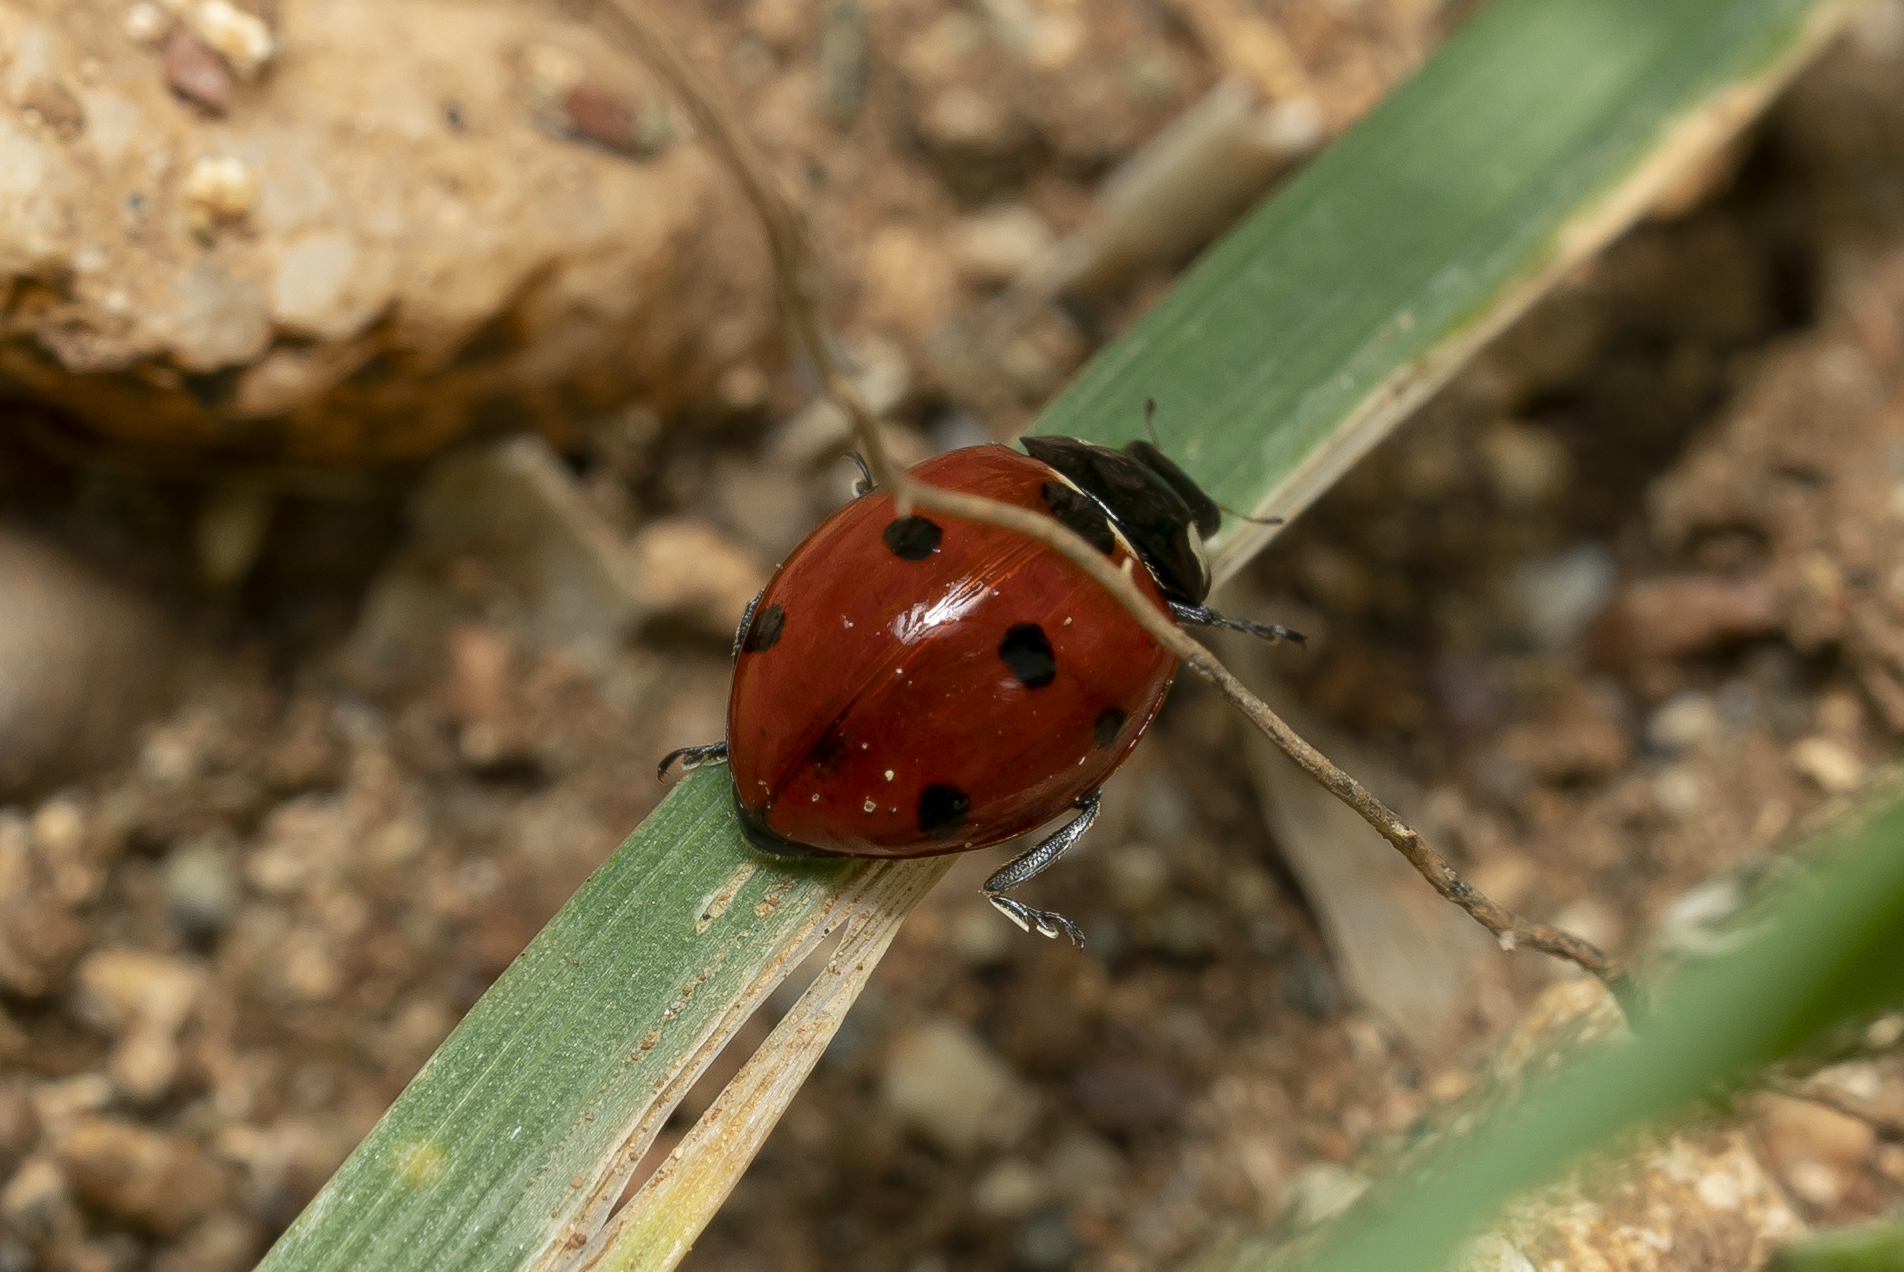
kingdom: Animalia
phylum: Arthropoda
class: Insecta
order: Coleoptera
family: Coccinellidae
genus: Coccinella
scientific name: Coccinella septempunctata
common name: Sevenspotted lady beetle
